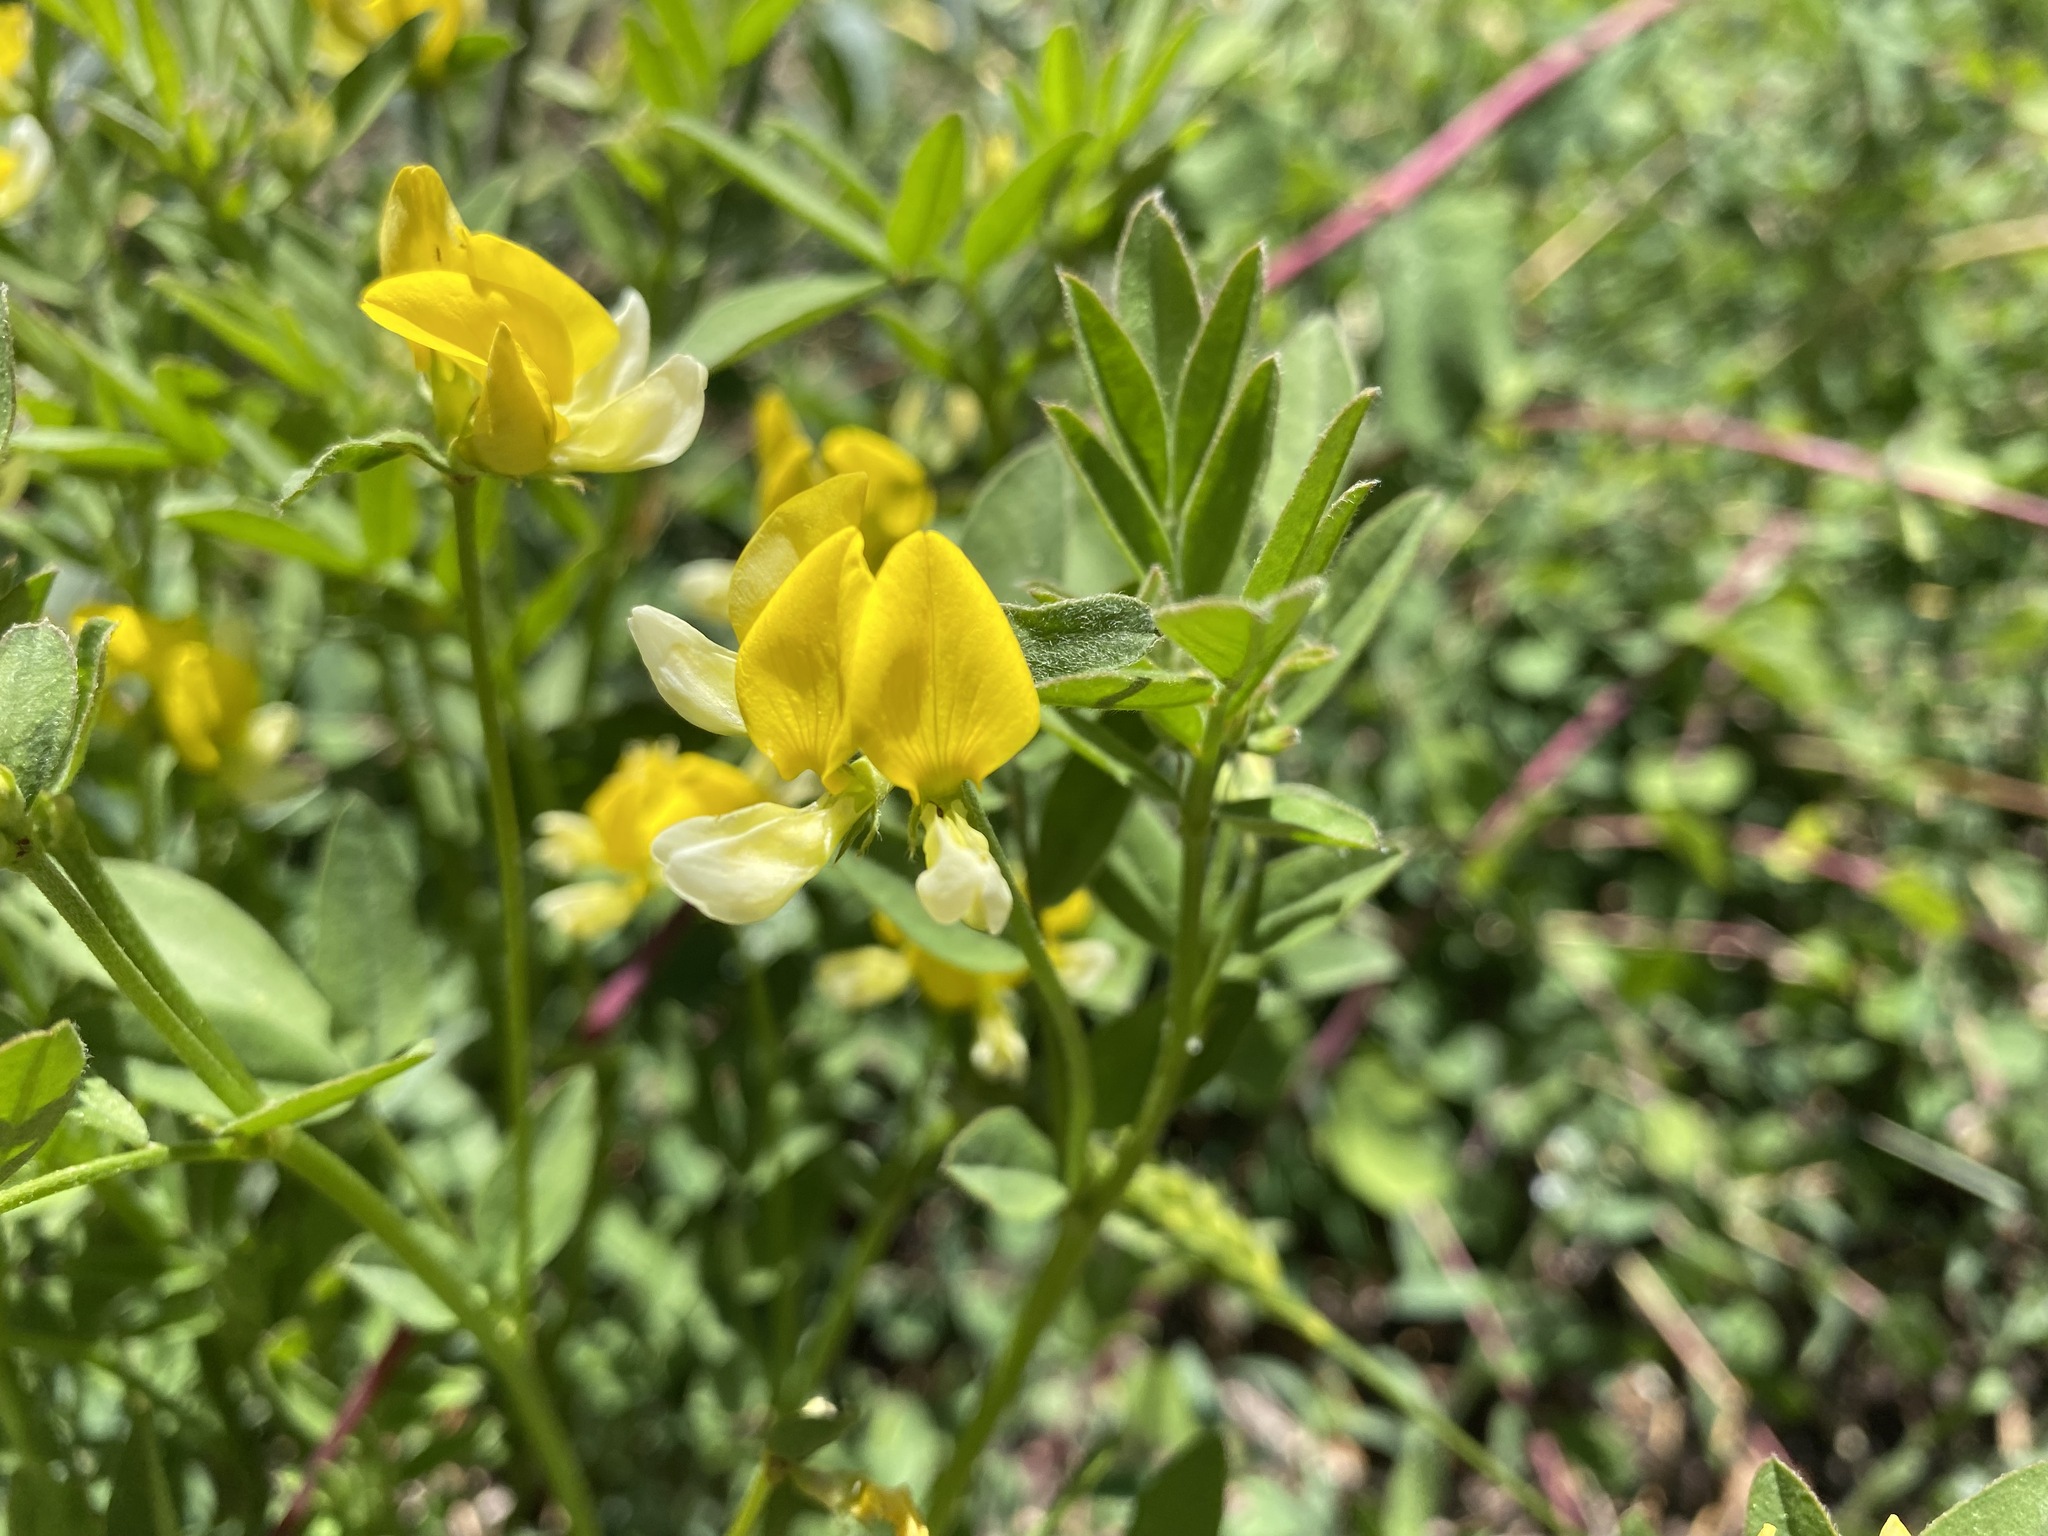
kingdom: Plantae
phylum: Tracheophyta
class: Magnoliopsida
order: Fabales
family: Fabaceae
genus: Hosackia
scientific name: Hosackia oblongifolia
